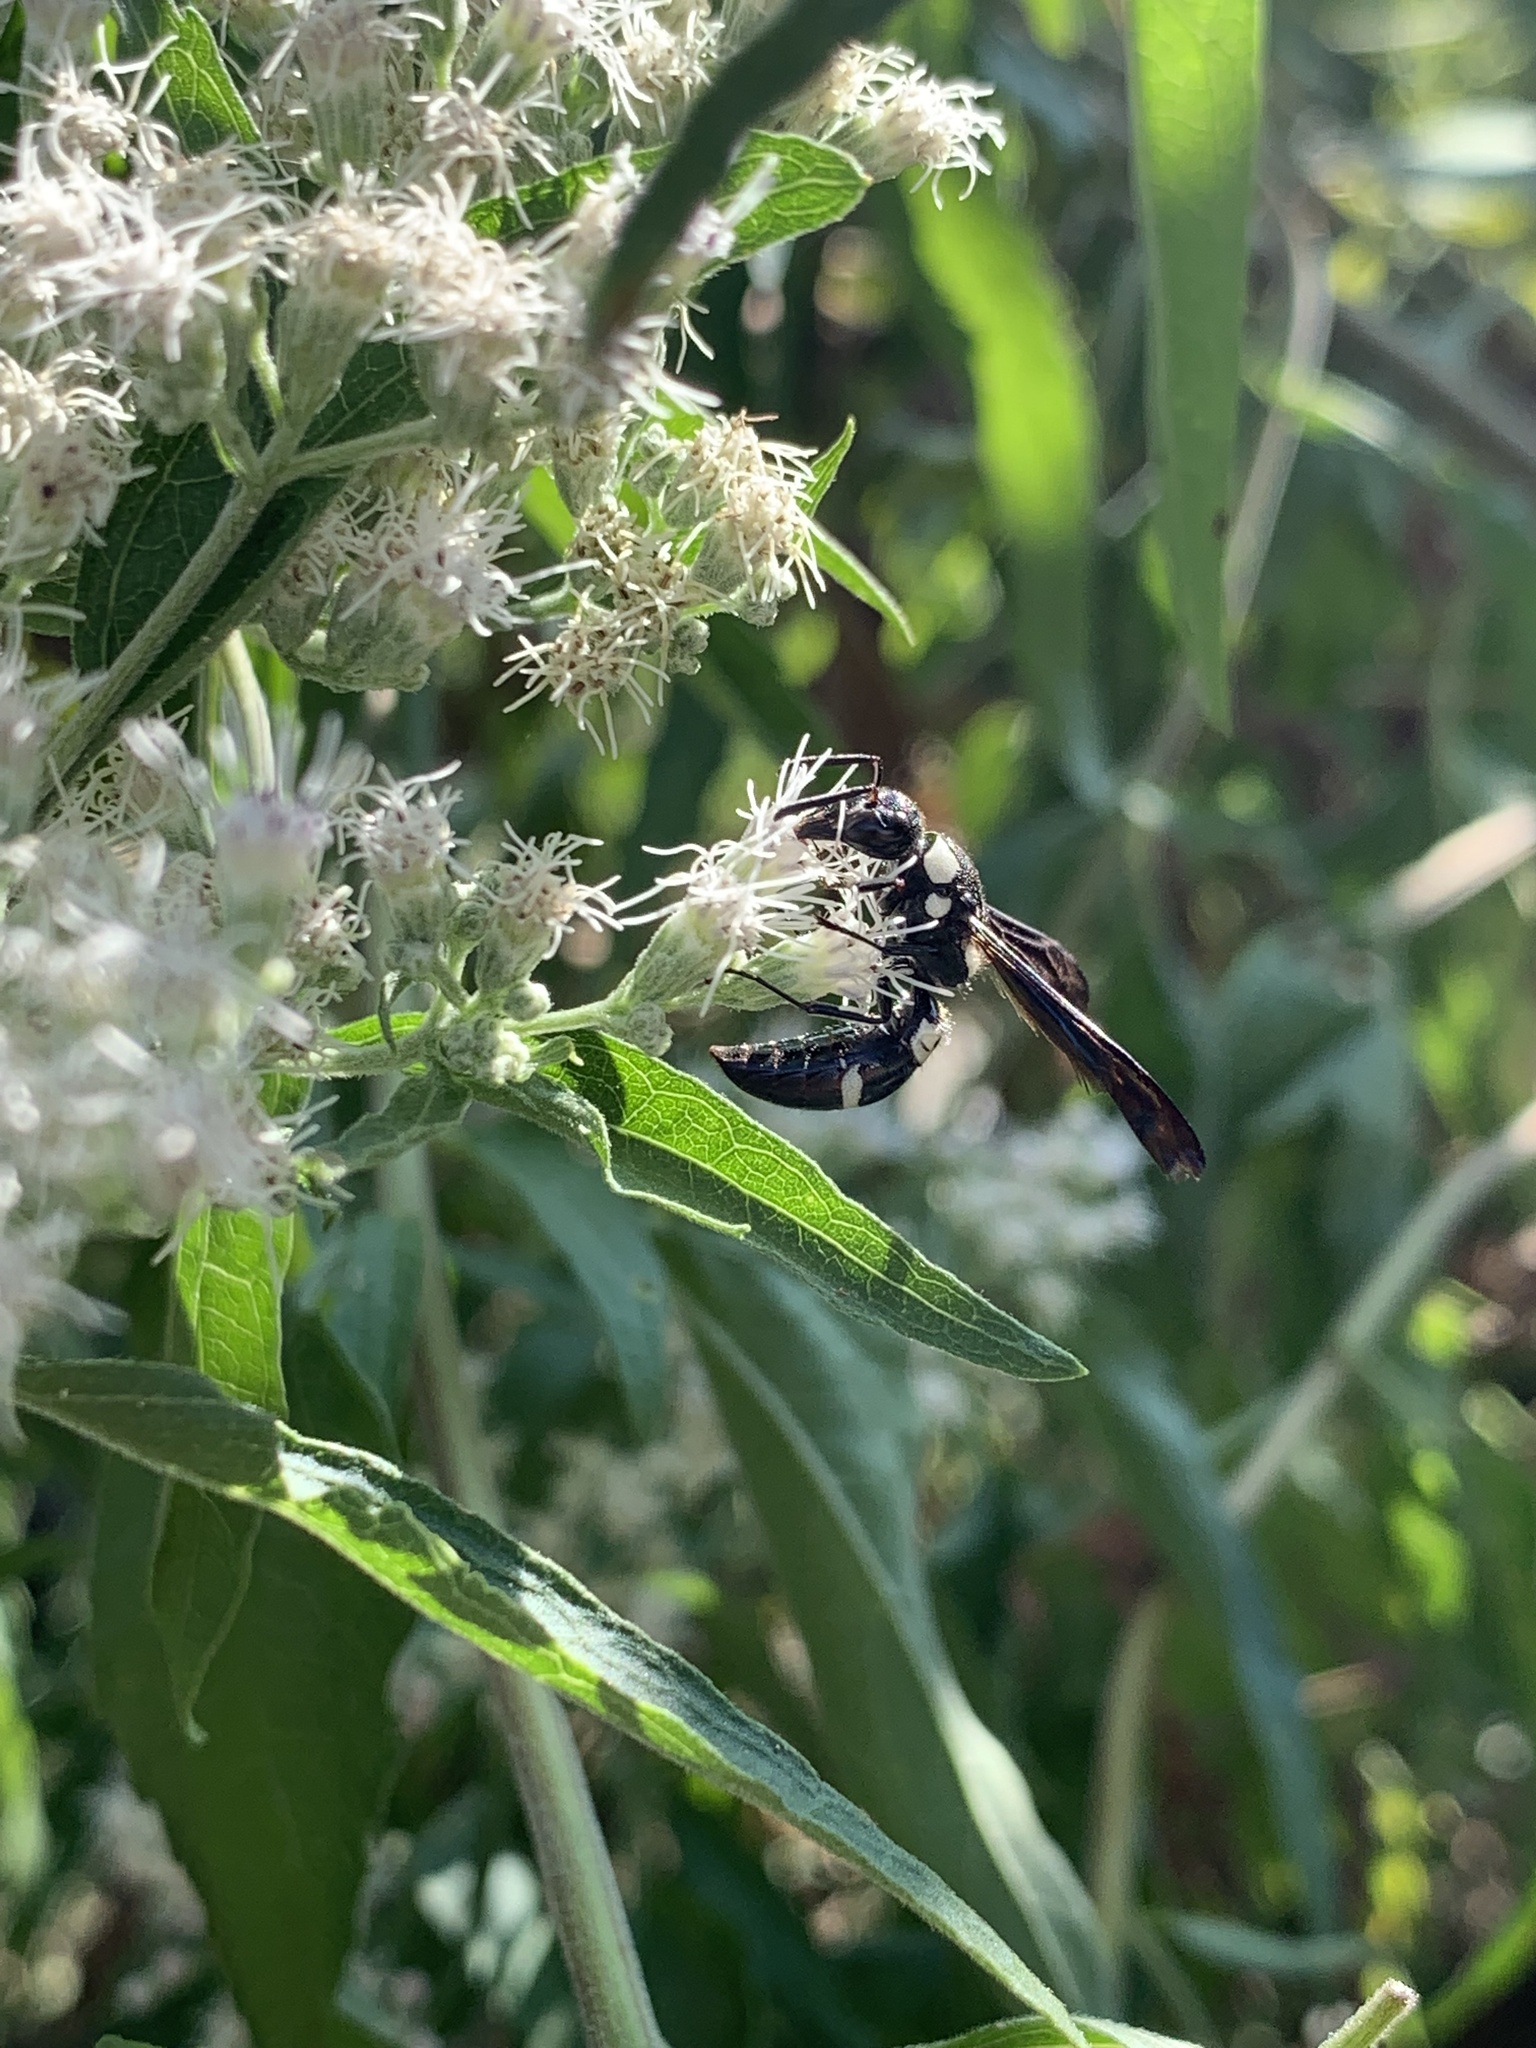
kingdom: Animalia
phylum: Arthropoda
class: Insecta
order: Hymenoptera
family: Eumenidae
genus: Pseudodynerus
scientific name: Pseudodynerus quadrisectus
